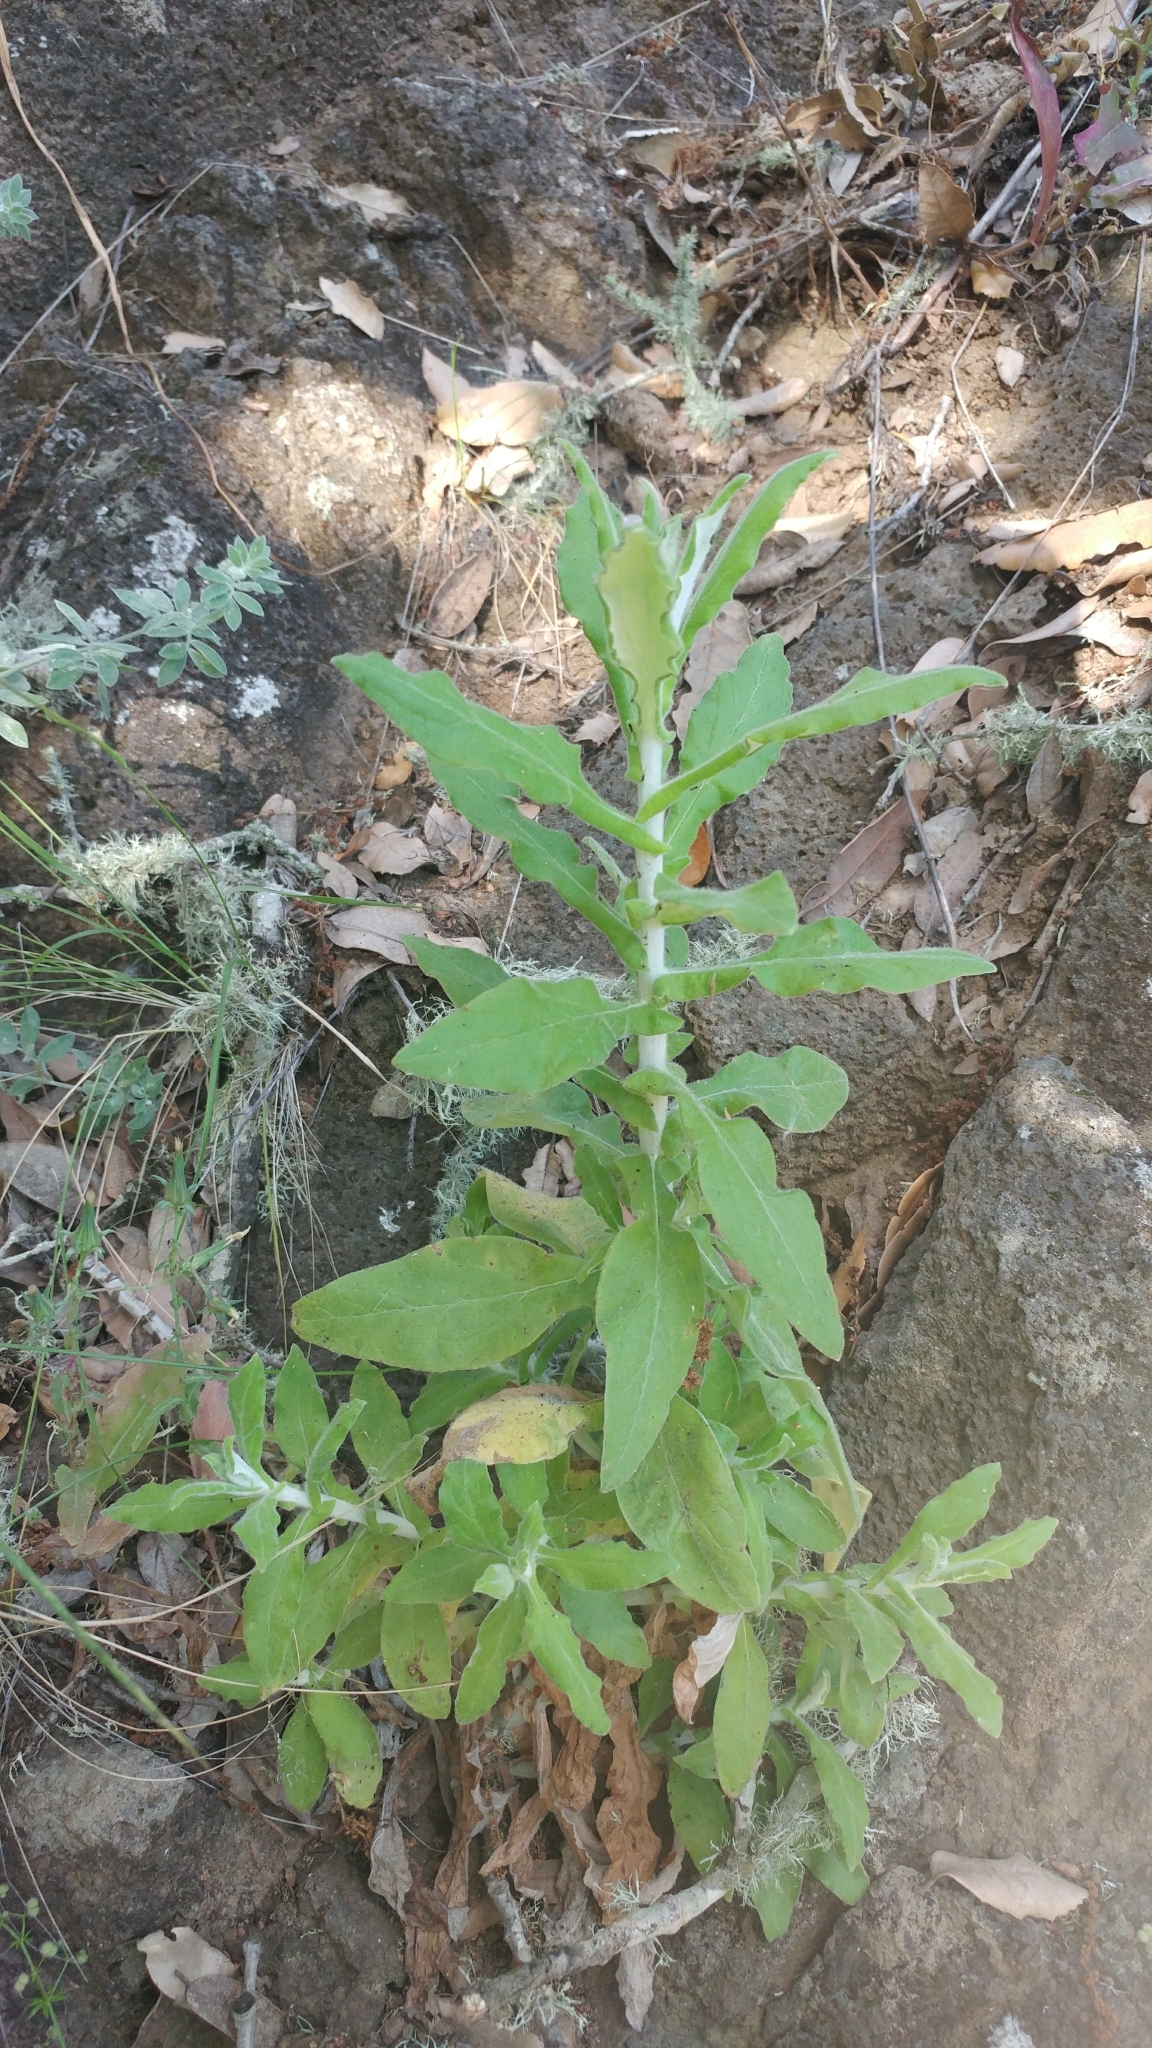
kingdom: Plantae
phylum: Tracheophyta
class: Magnoliopsida
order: Asterales
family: Asteraceae
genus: Pseudognaphalium
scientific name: Pseudognaphalium biolettii
